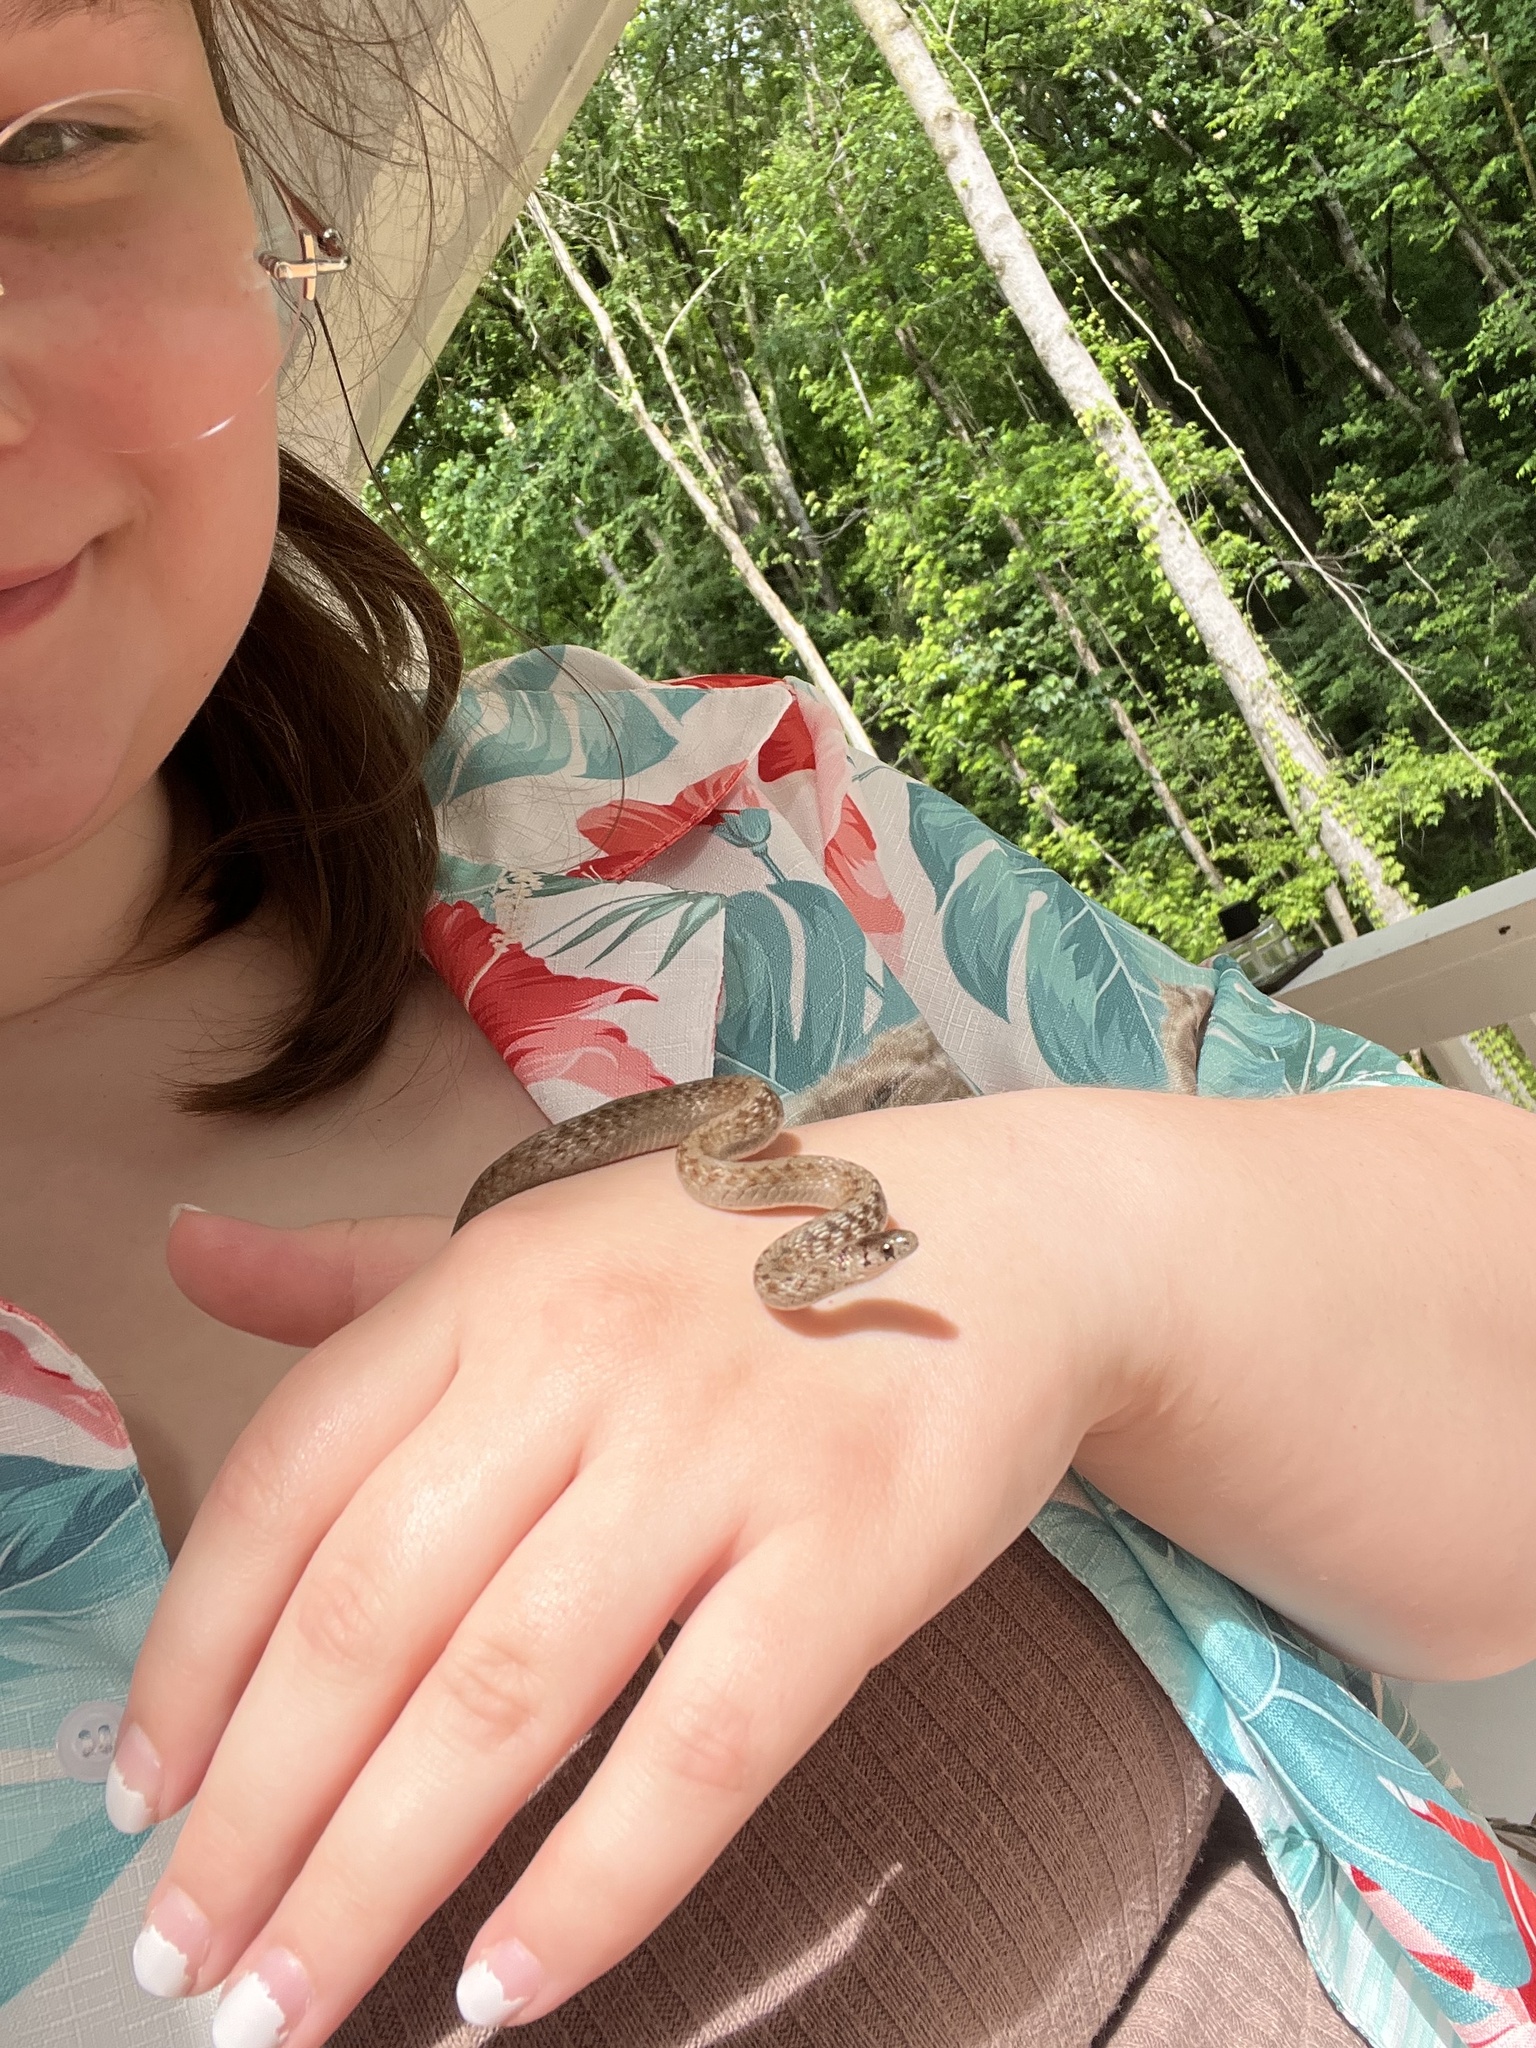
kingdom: Animalia
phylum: Chordata
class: Squamata
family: Colubridae
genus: Storeria
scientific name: Storeria dekayi
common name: (dekay’s) brown snake
